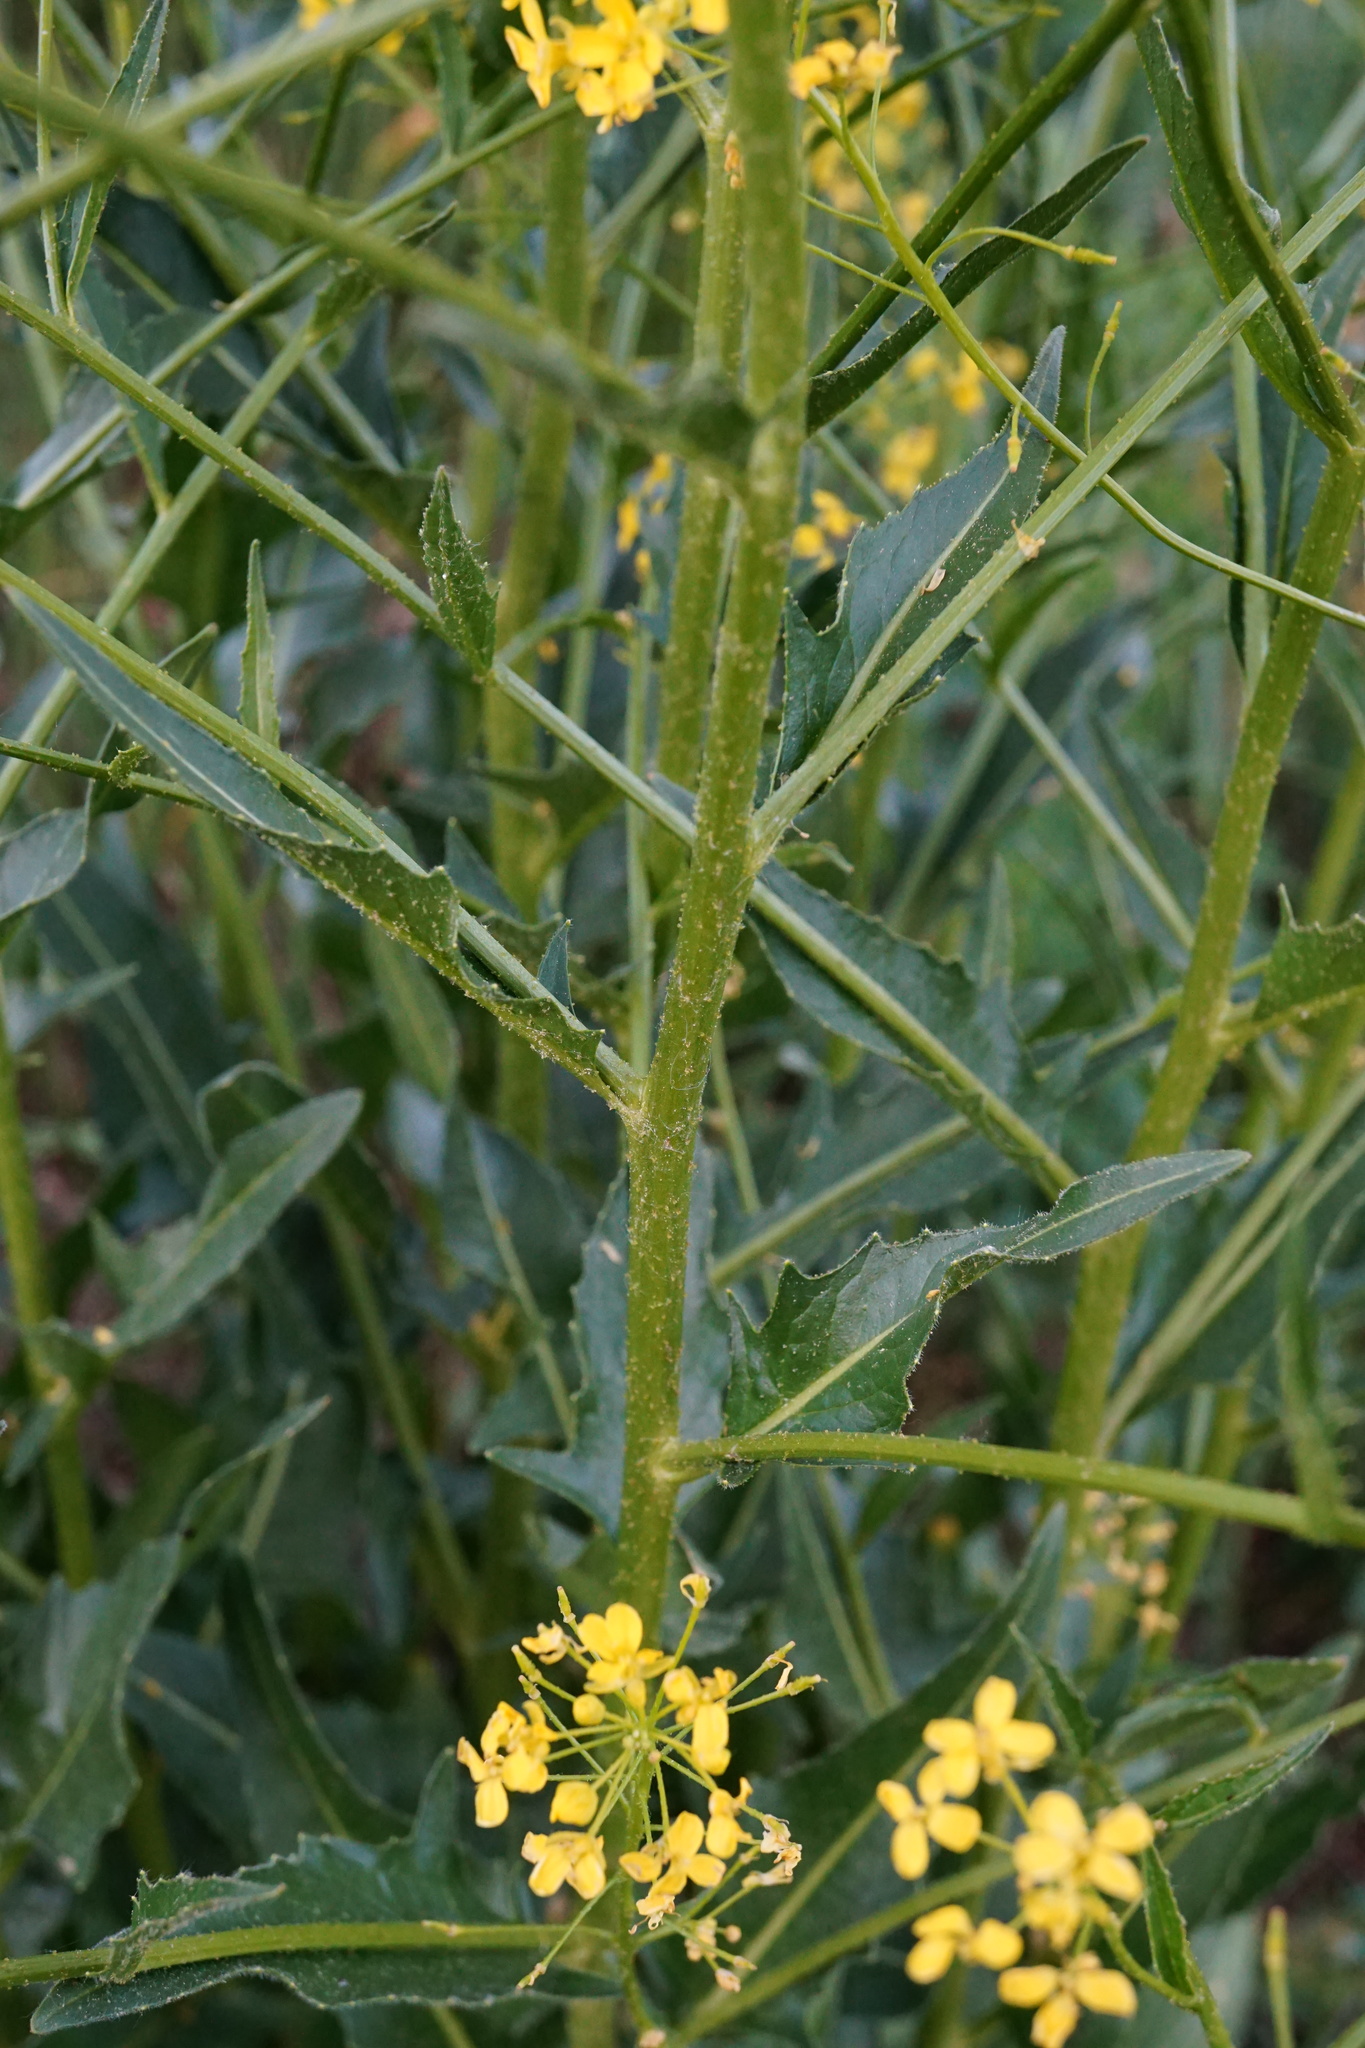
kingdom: Plantae
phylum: Tracheophyta
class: Magnoliopsida
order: Brassicales
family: Brassicaceae
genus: Bunias
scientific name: Bunias orientalis
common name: Warty-cabbage
